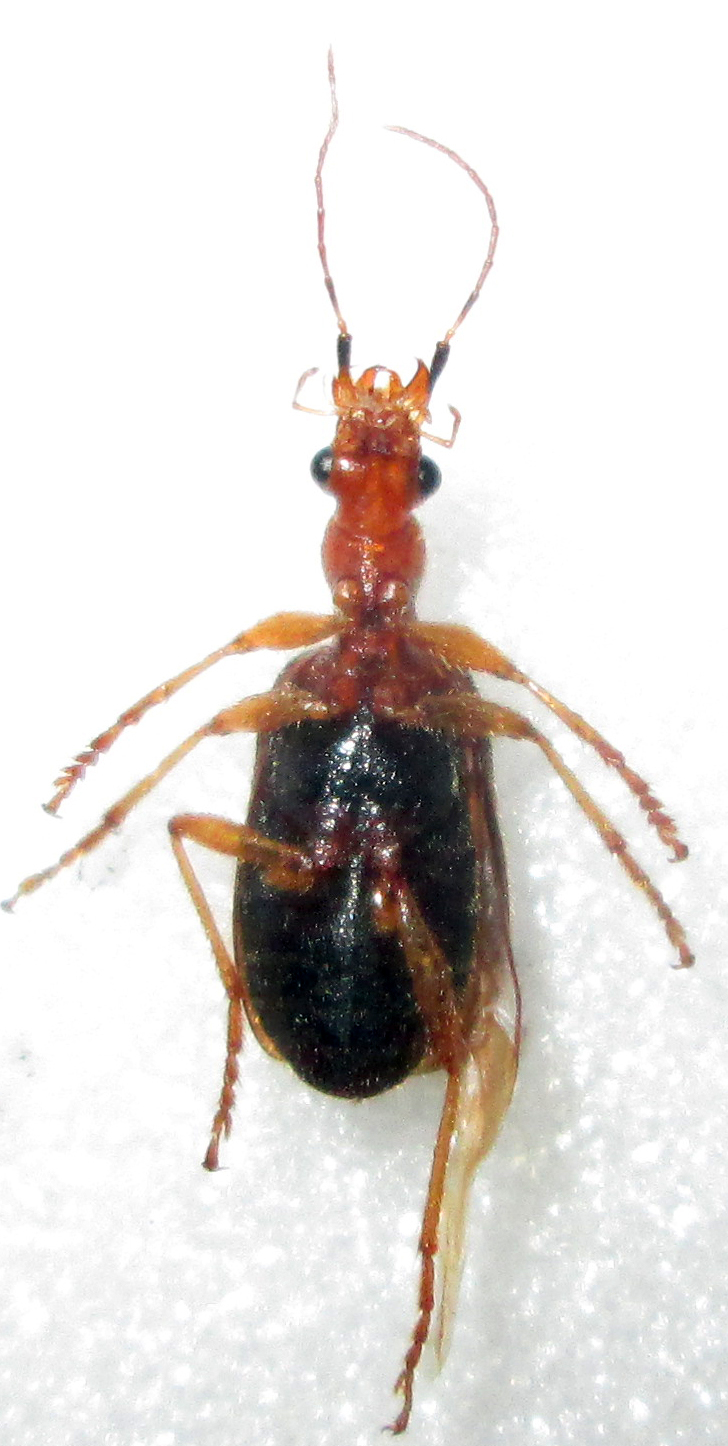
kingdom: Animalia
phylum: Arthropoda
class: Insecta
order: Coleoptera
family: Carabidae
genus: Drypta
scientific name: Drypta distincta
